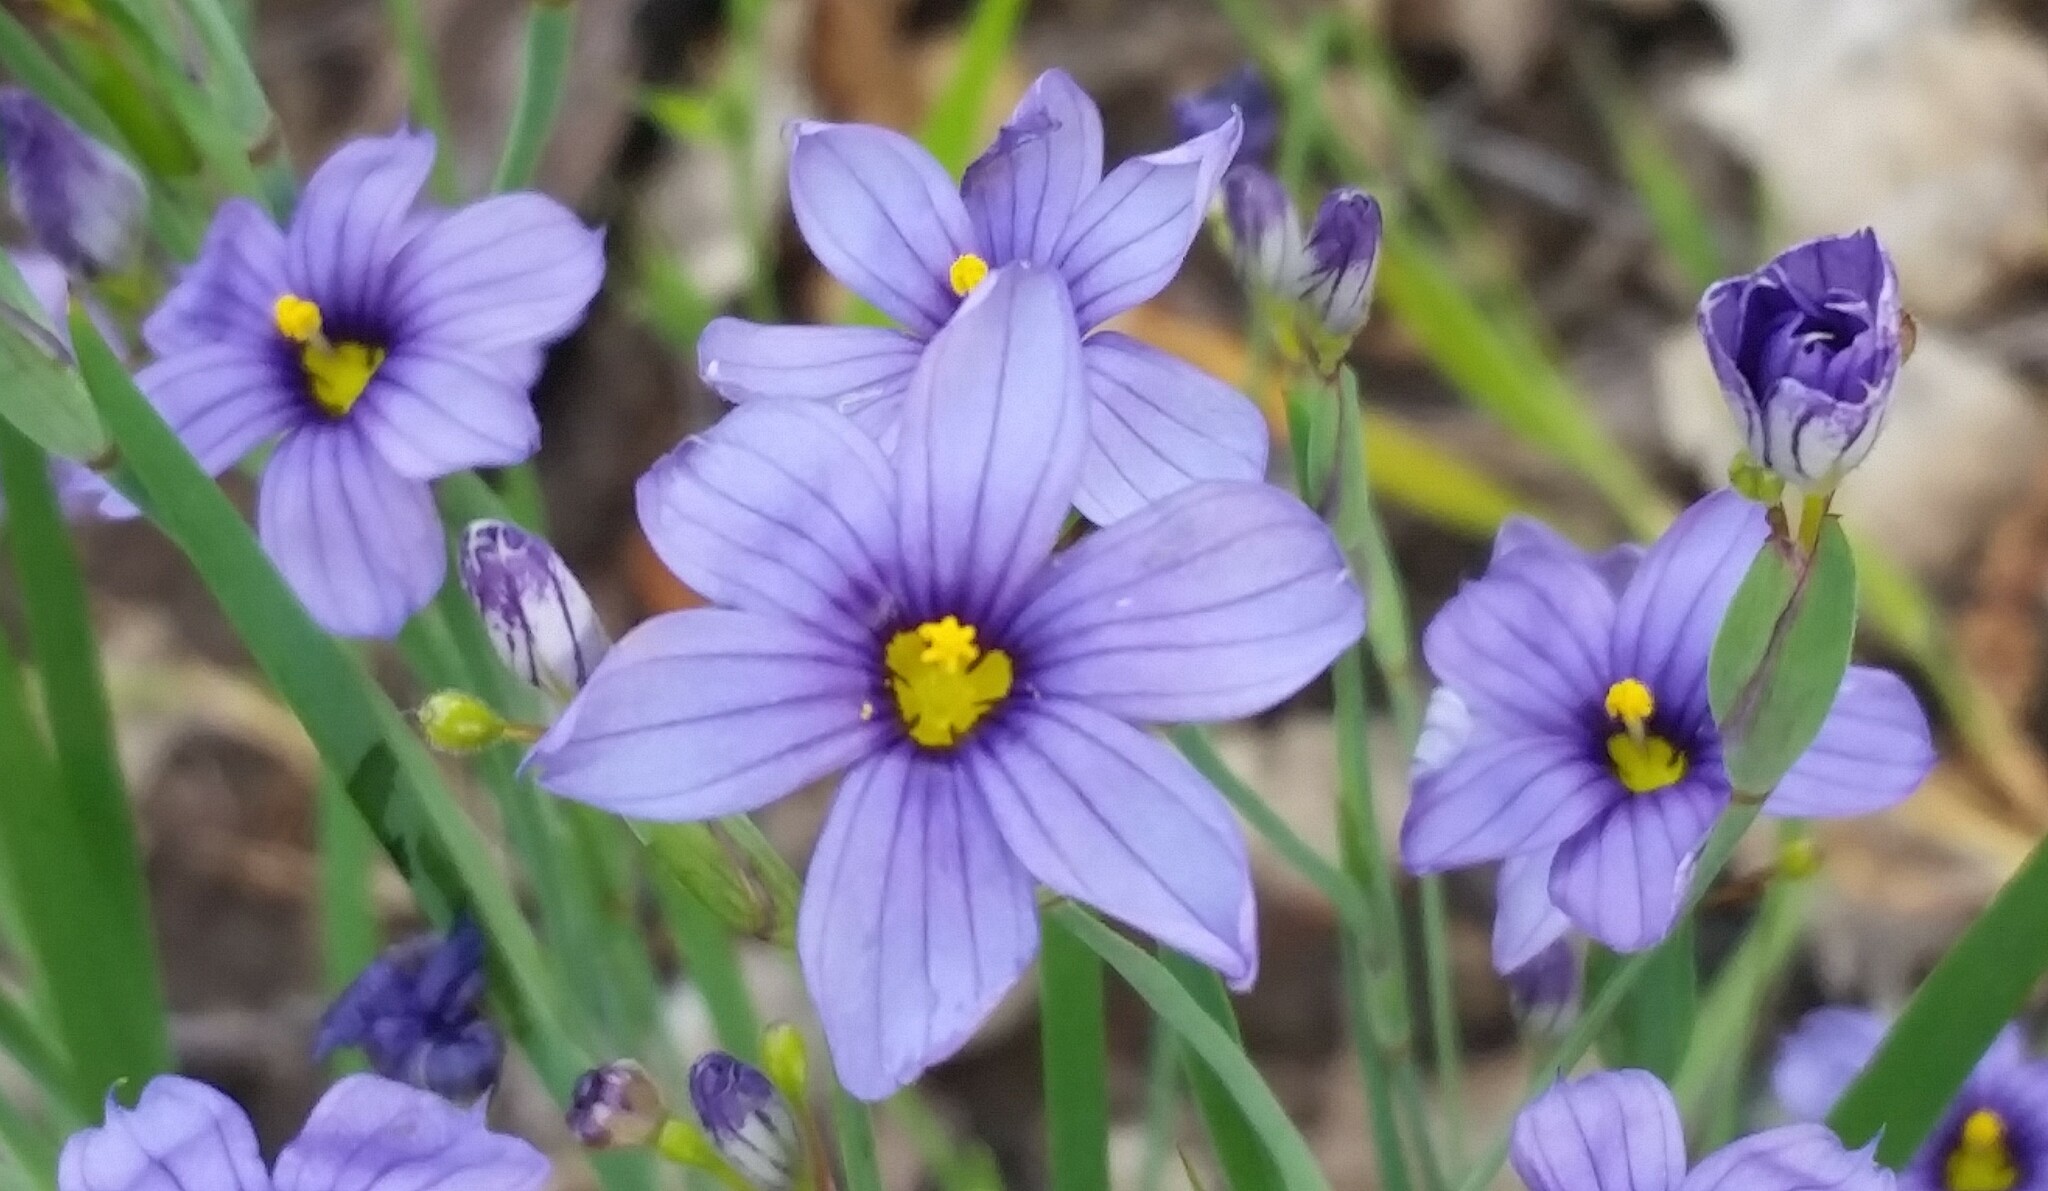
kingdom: Plantae
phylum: Tracheophyta
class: Liliopsida
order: Asparagales
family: Iridaceae
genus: Sisyrinchium
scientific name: Sisyrinchium bellum
